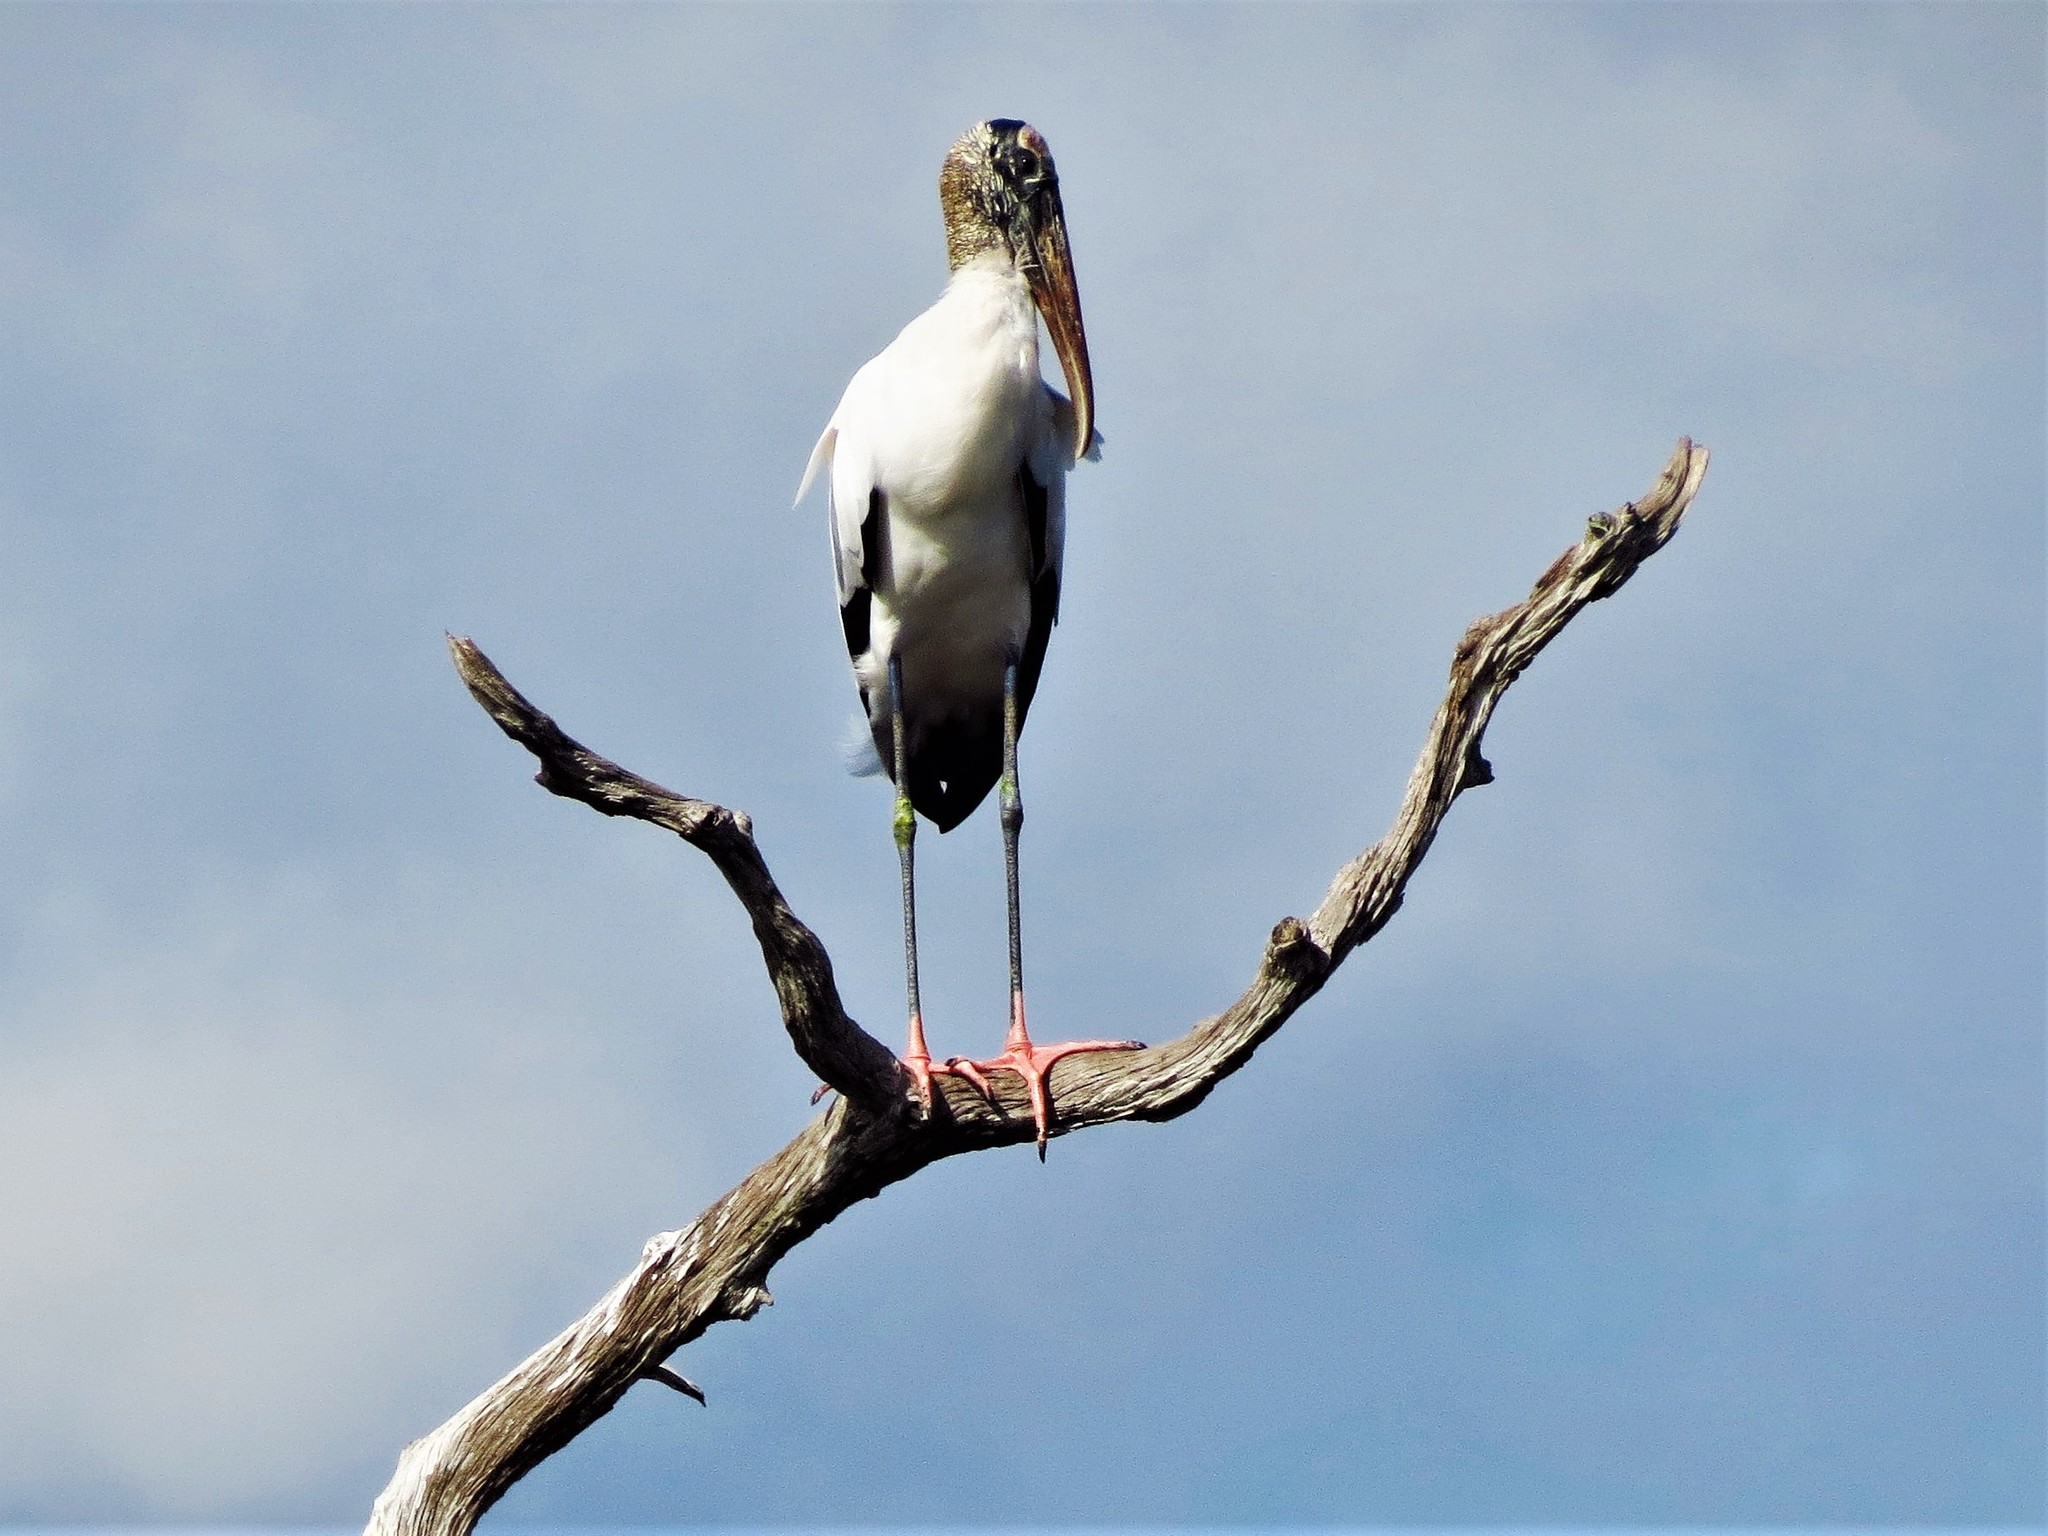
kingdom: Animalia
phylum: Chordata
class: Aves
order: Ciconiiformes
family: Ciconiidae
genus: Mycteria
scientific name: Mycteria americana
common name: Wood stork
